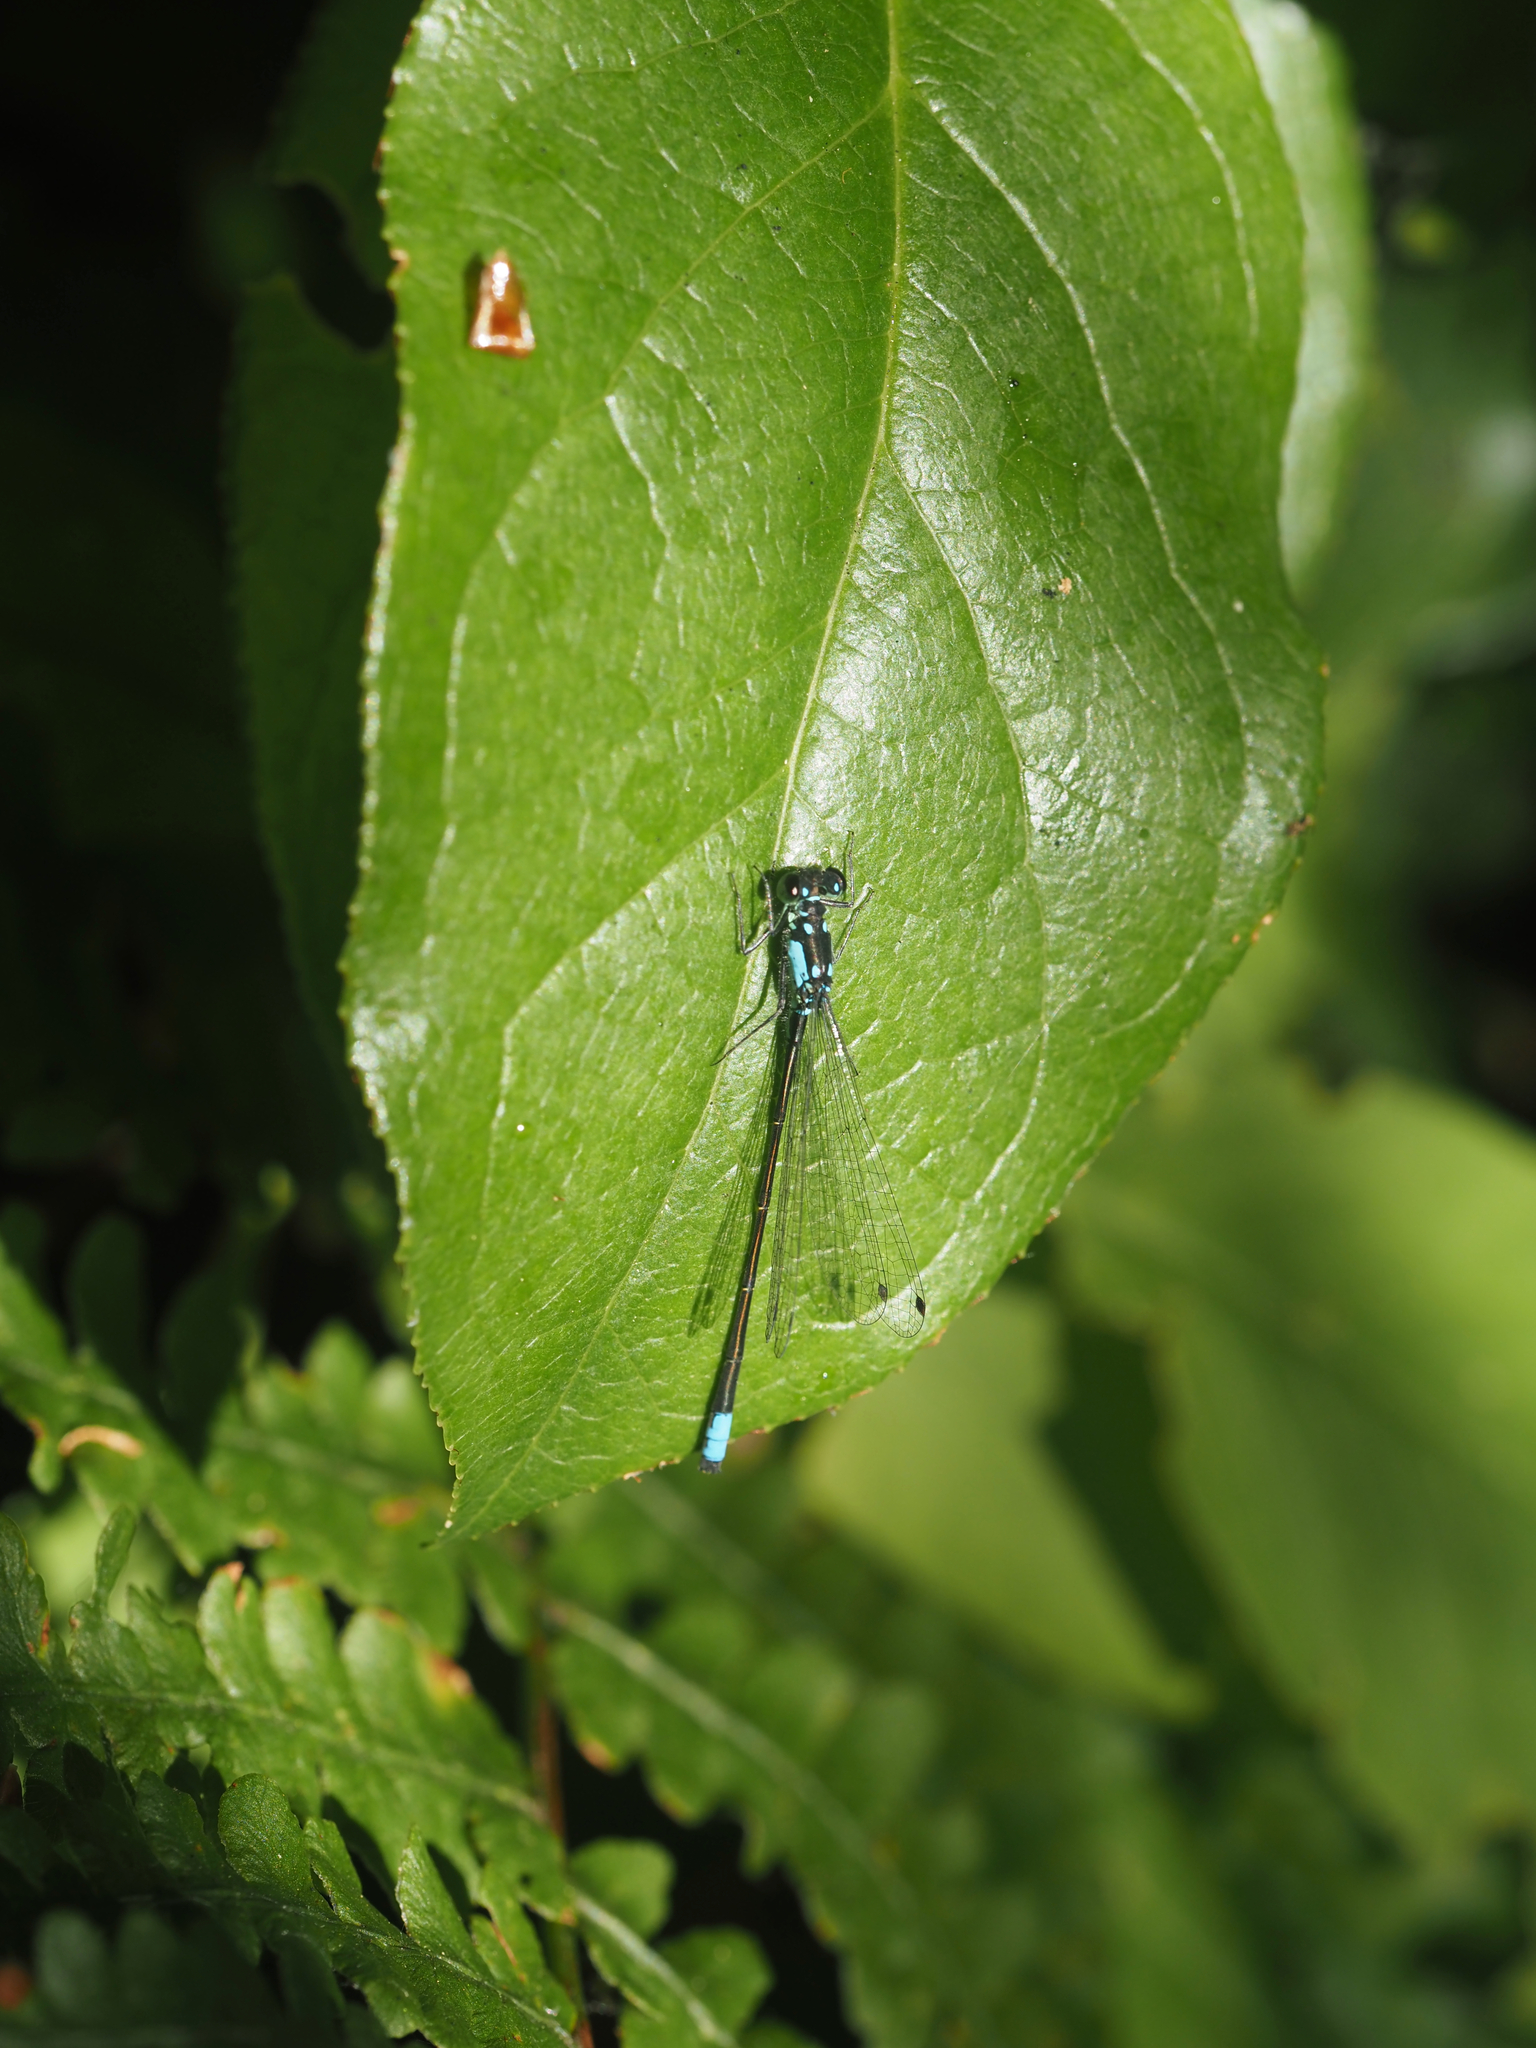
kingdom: Animalia
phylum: Arthropoda
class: Insecta
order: Odonata
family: Coenagrionidae
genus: Ischnura
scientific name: Ischnura cervula
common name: Pacific forktail
